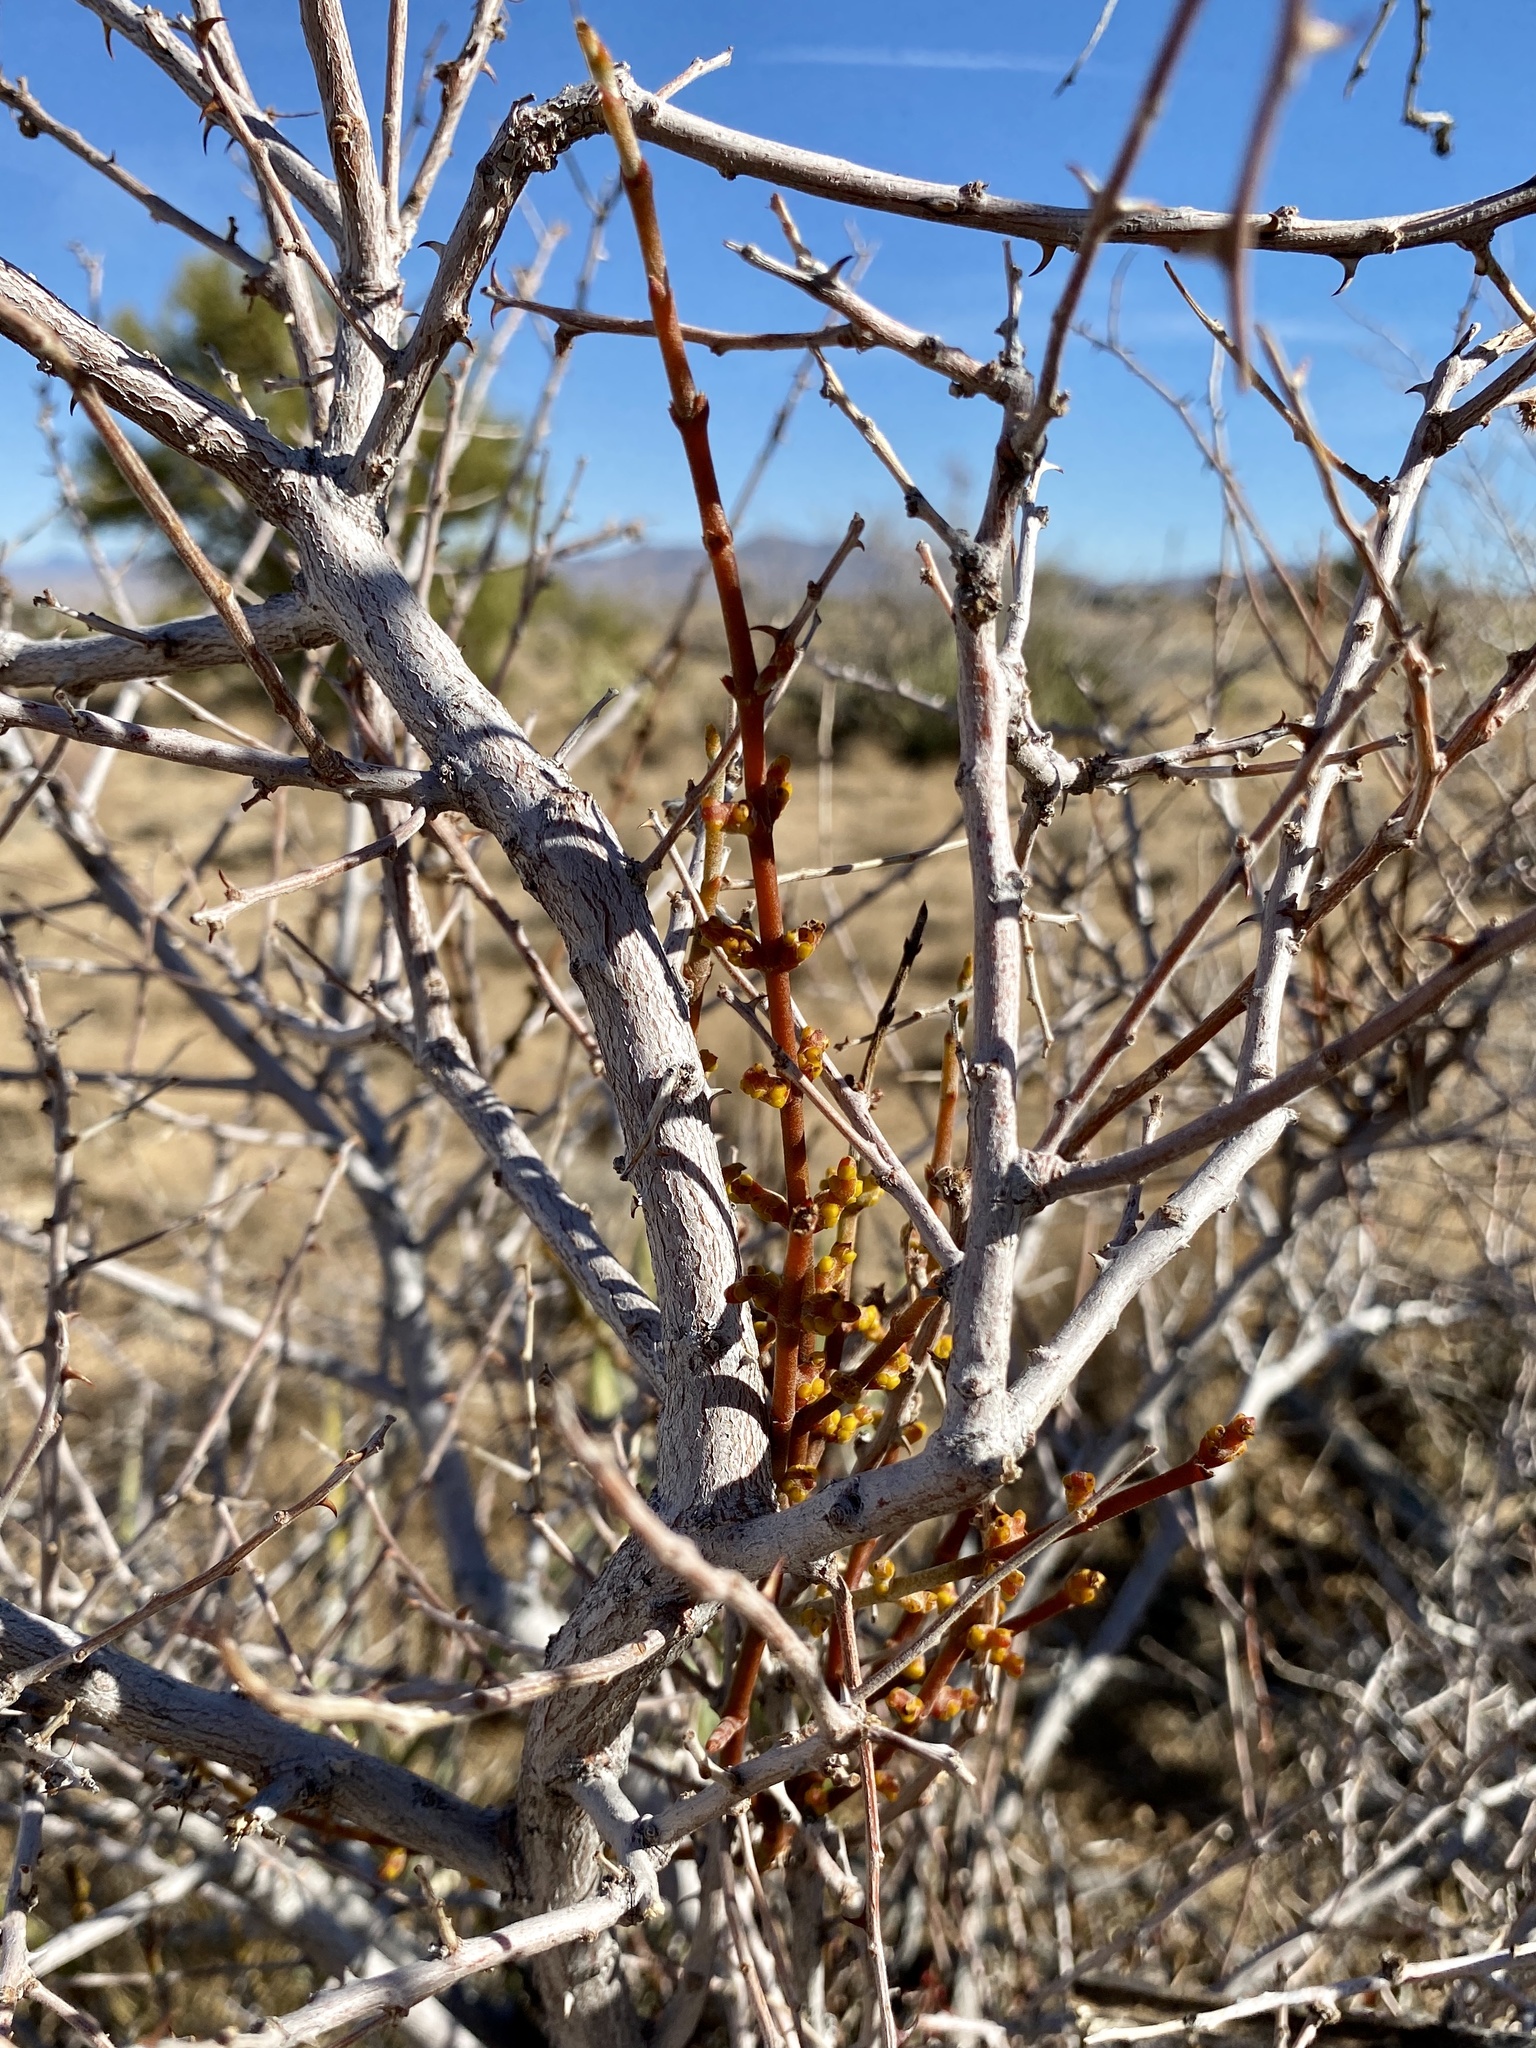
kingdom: Plantae
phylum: Tracheophyta
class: Magnoliopsida
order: Santalales
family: Viscaceae
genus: Phoradendron
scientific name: Phoradendron californicum
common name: Acacia mistletoe
